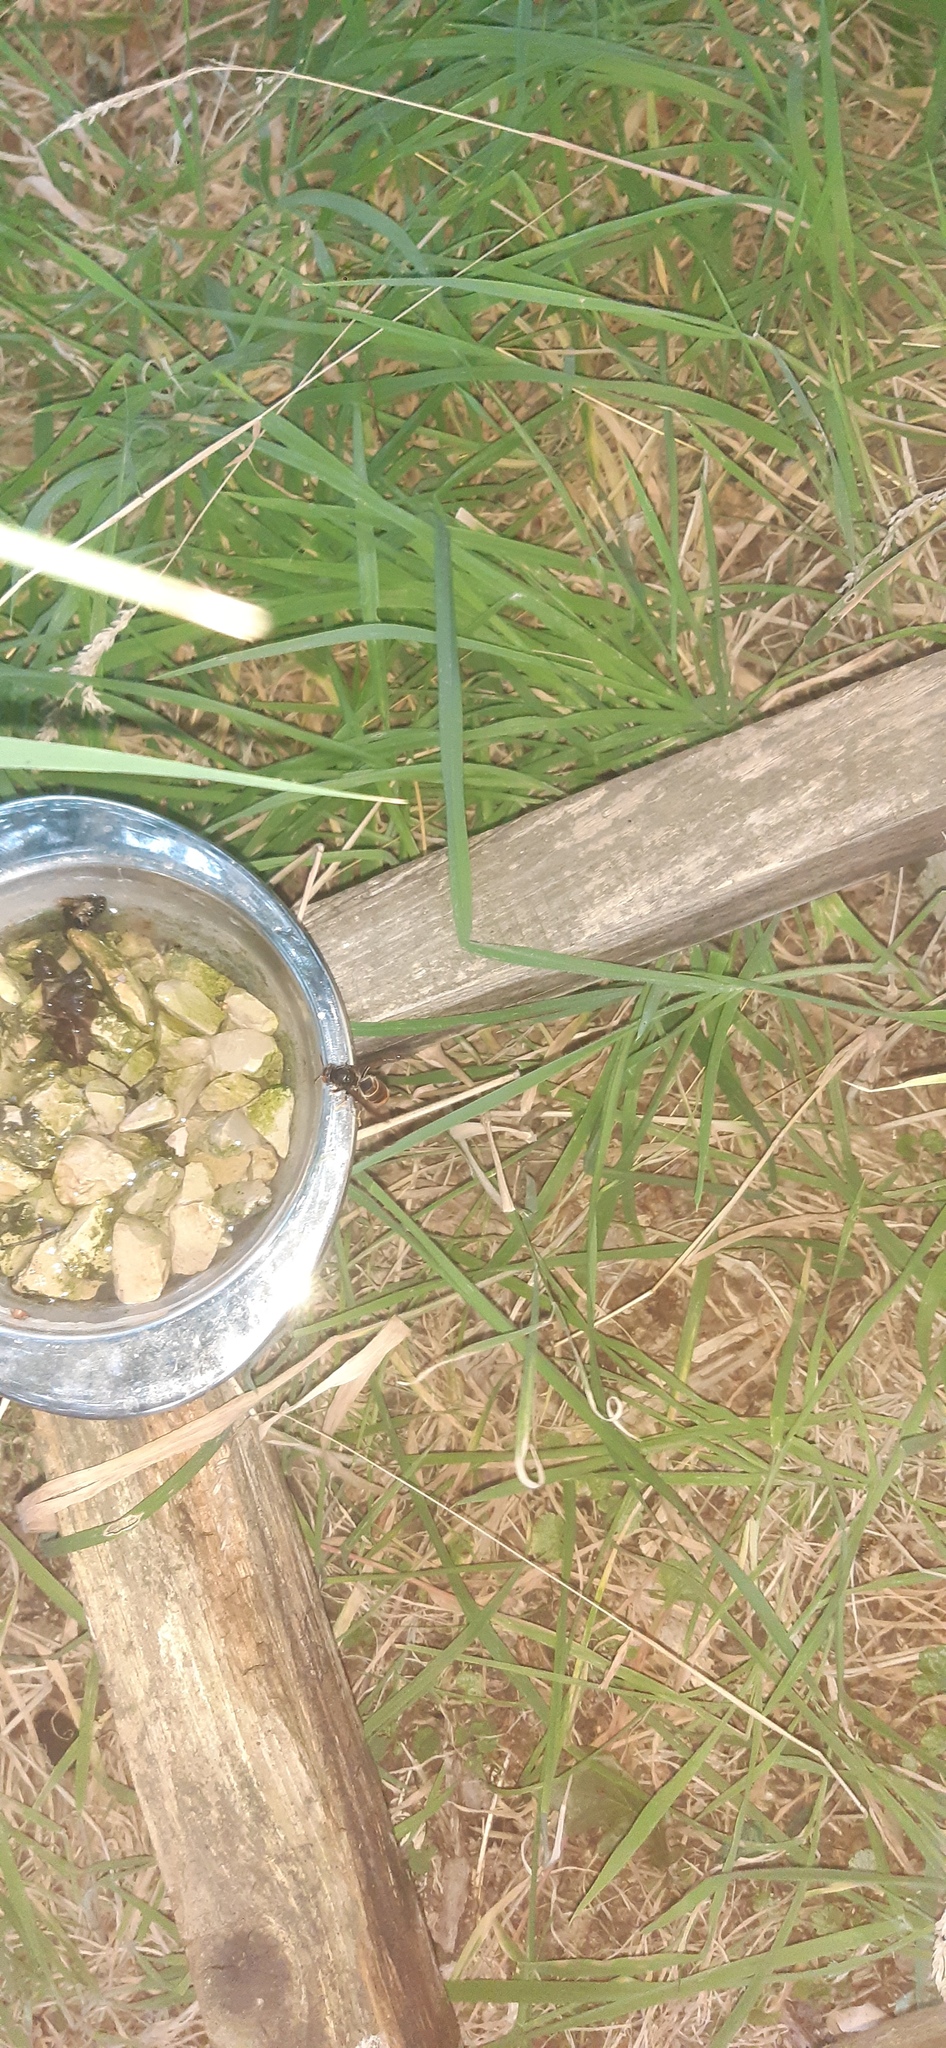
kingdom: Animalia
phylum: Arthropoda
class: Insecta
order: Hymenoptera
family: Vespidae
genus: Vespa
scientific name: Vespa velutina
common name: Asian hornet
